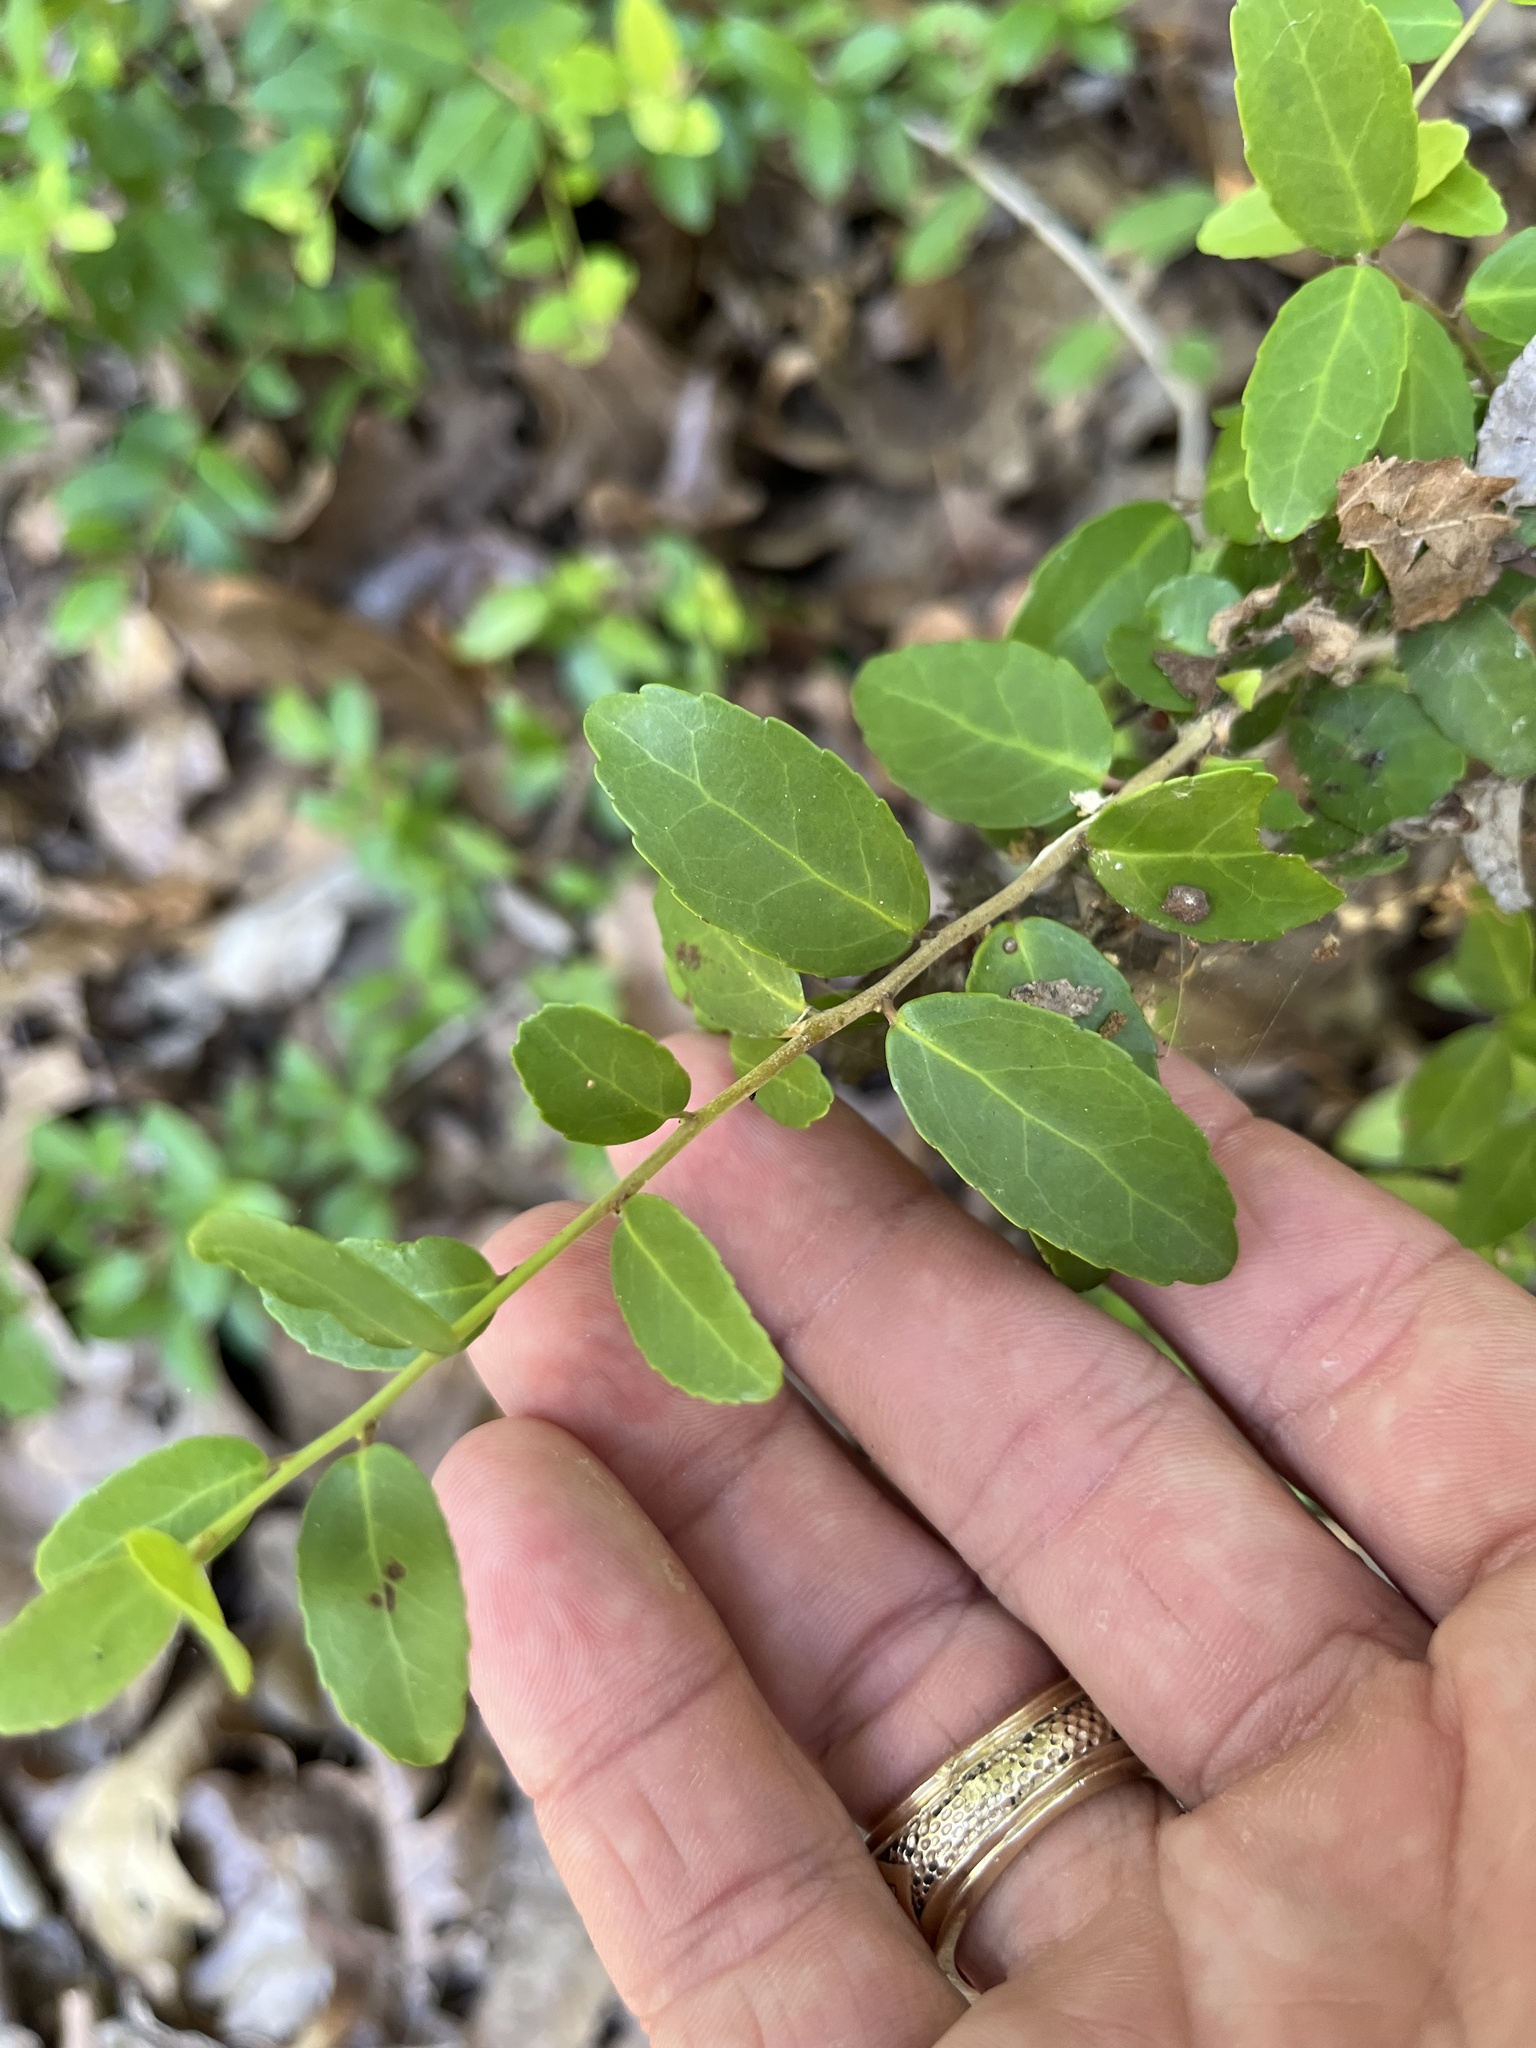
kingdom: Plantae
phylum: Tracheophyta
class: Magnoliopsida
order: Aquifoliales
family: Aquifoliaceae
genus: Ilex
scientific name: Ilex vomitoria
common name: Yaupon holly
